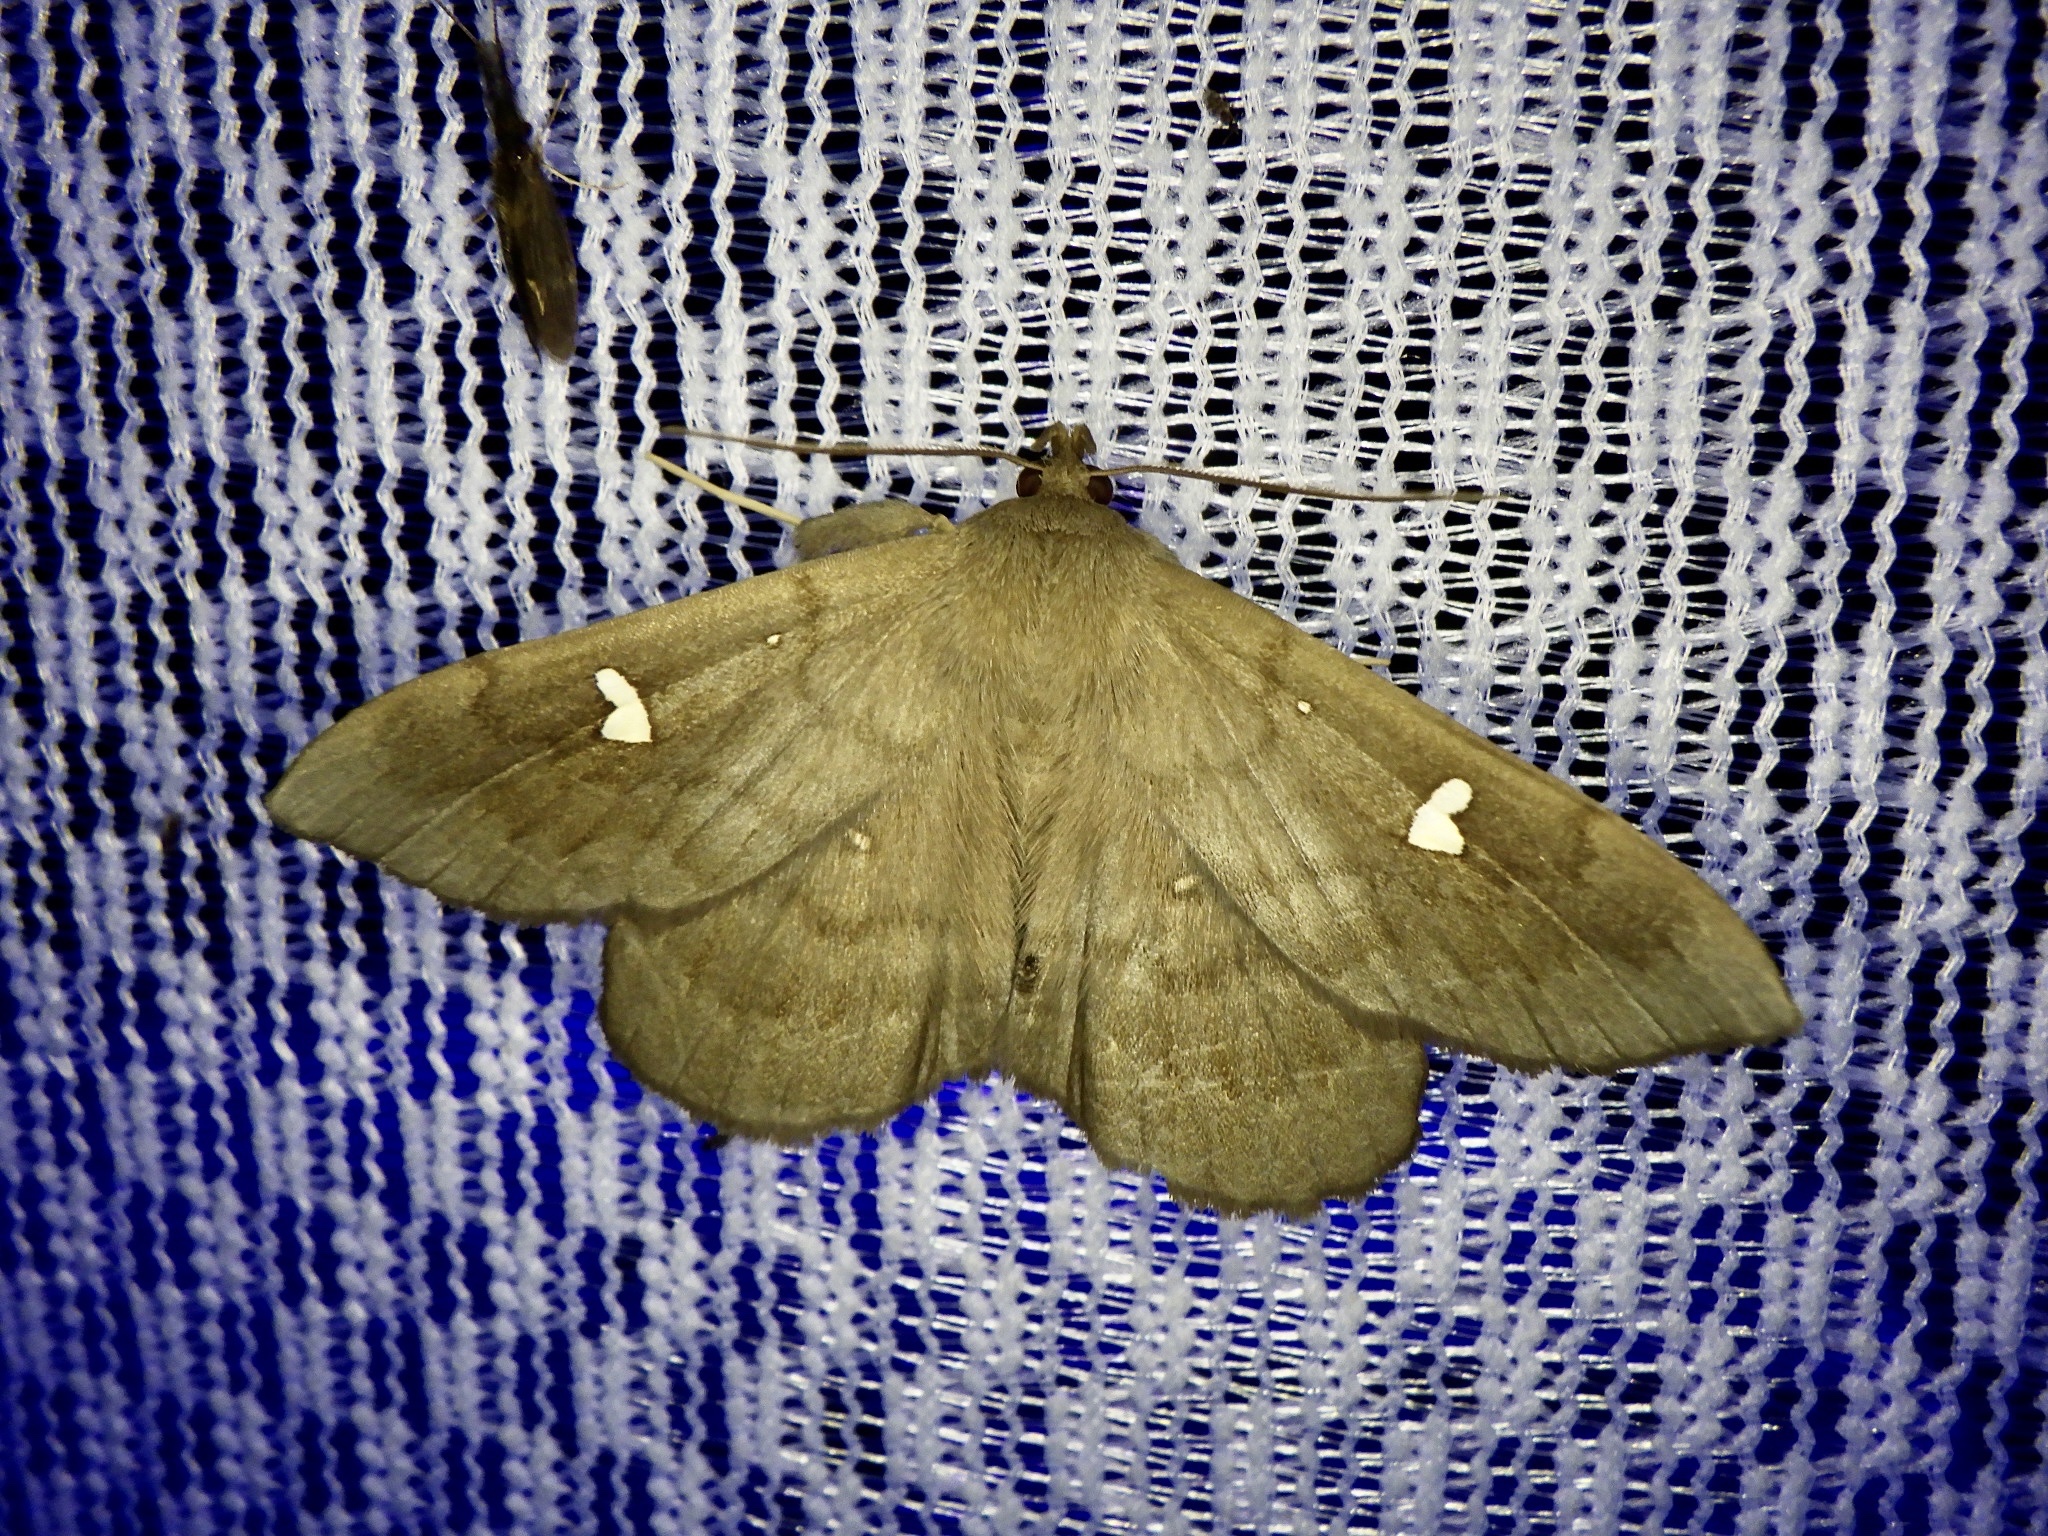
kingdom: Animalia
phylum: Arthropoda
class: Insecta
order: Lepidoptera
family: Erebidae
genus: Edessena
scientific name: Edessena hamada
